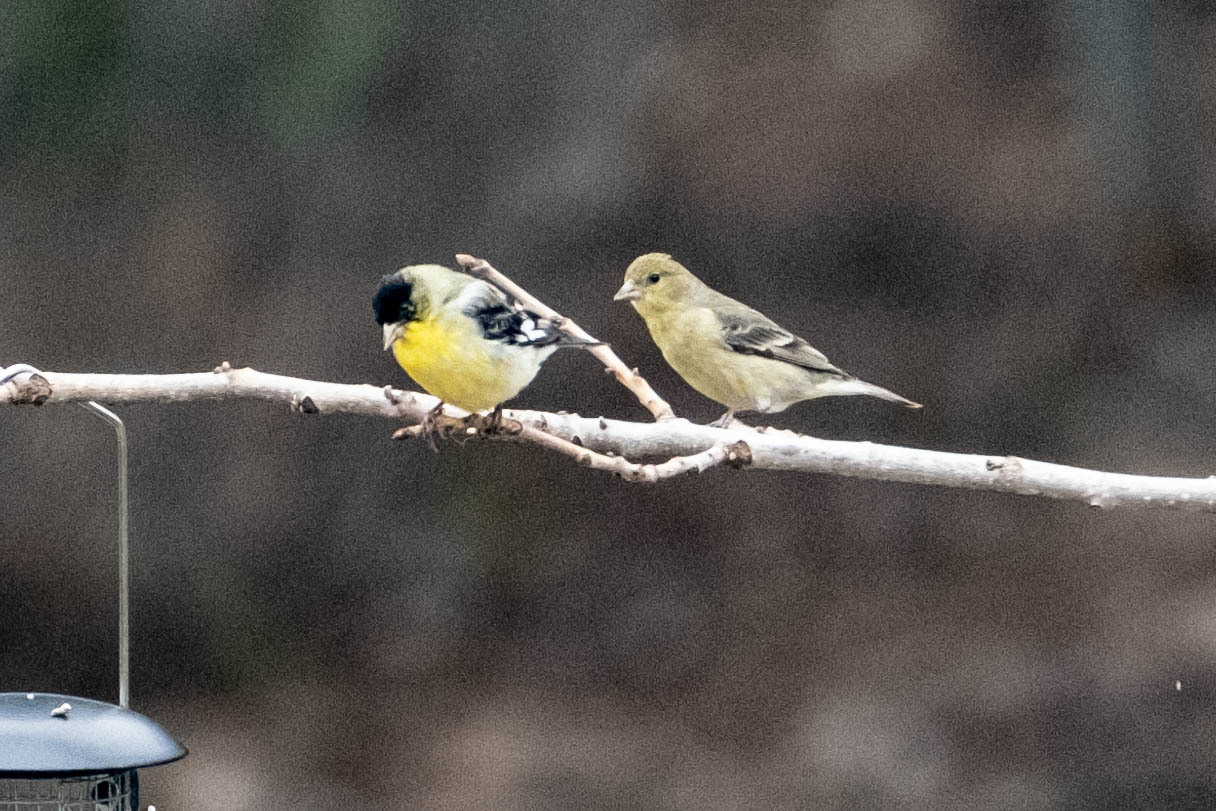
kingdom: Animalia
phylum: Chordata
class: Aves
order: Passeriformes
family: Fringillidae
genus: Spinus
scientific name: Spinus psaltria
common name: Lesser goldfinch
